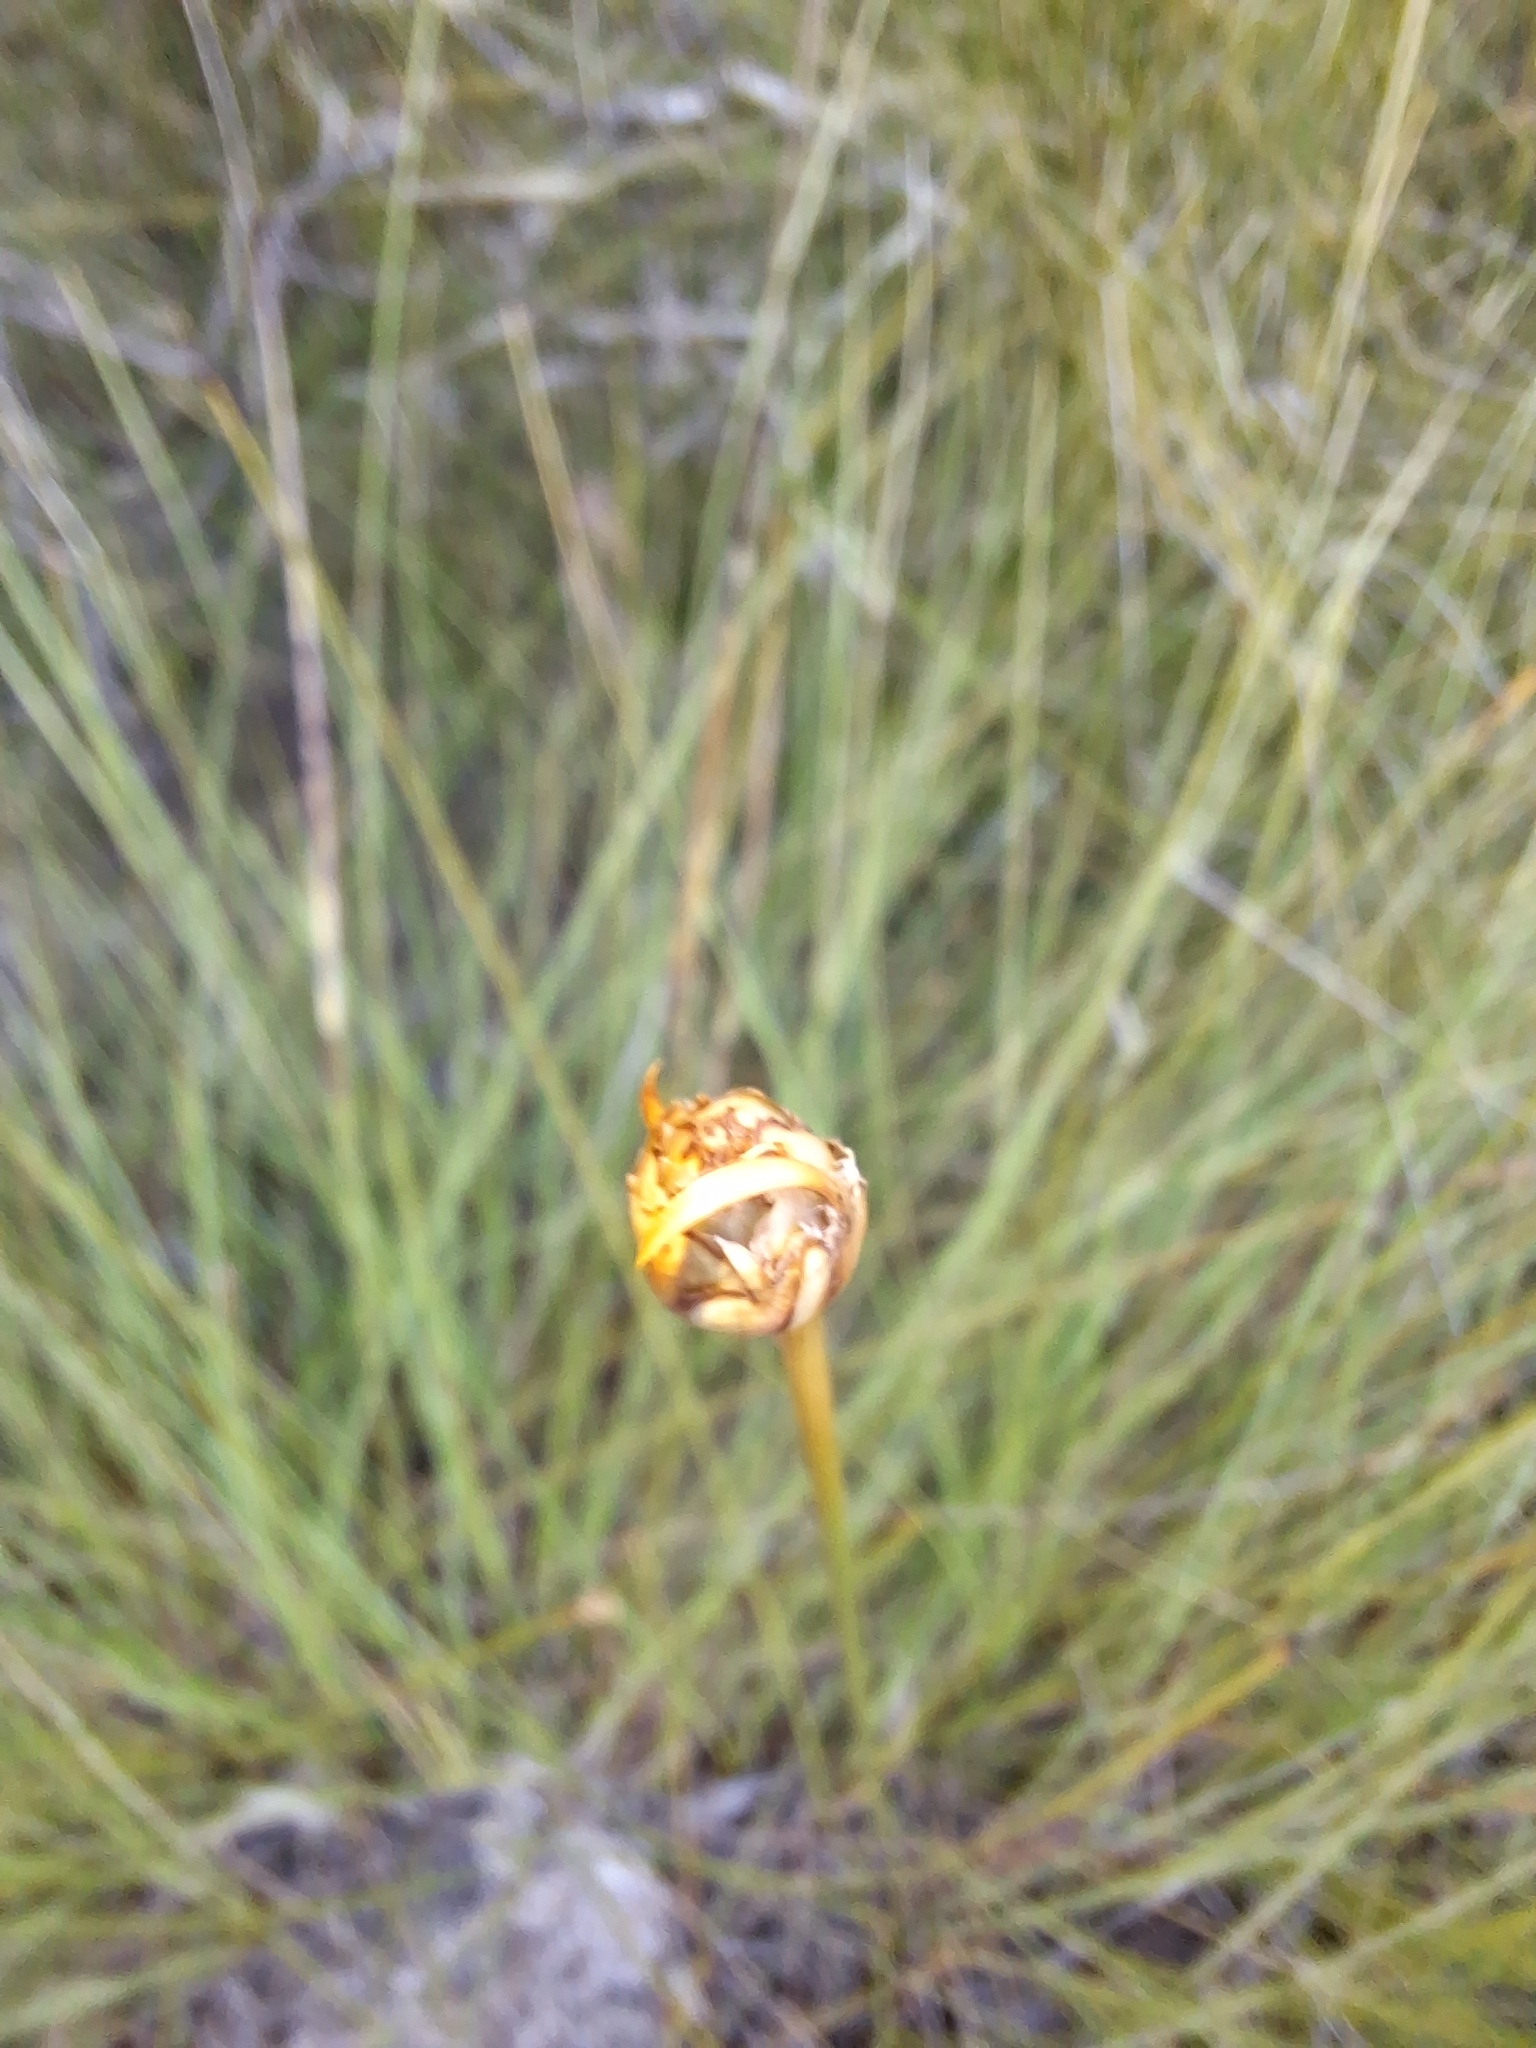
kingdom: Plantae
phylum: Tracheophyta
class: Liliopsida
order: Poales
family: Cyperaceae
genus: Gymnoschoenus
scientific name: Gymnoschoenus sphaerocephalus
